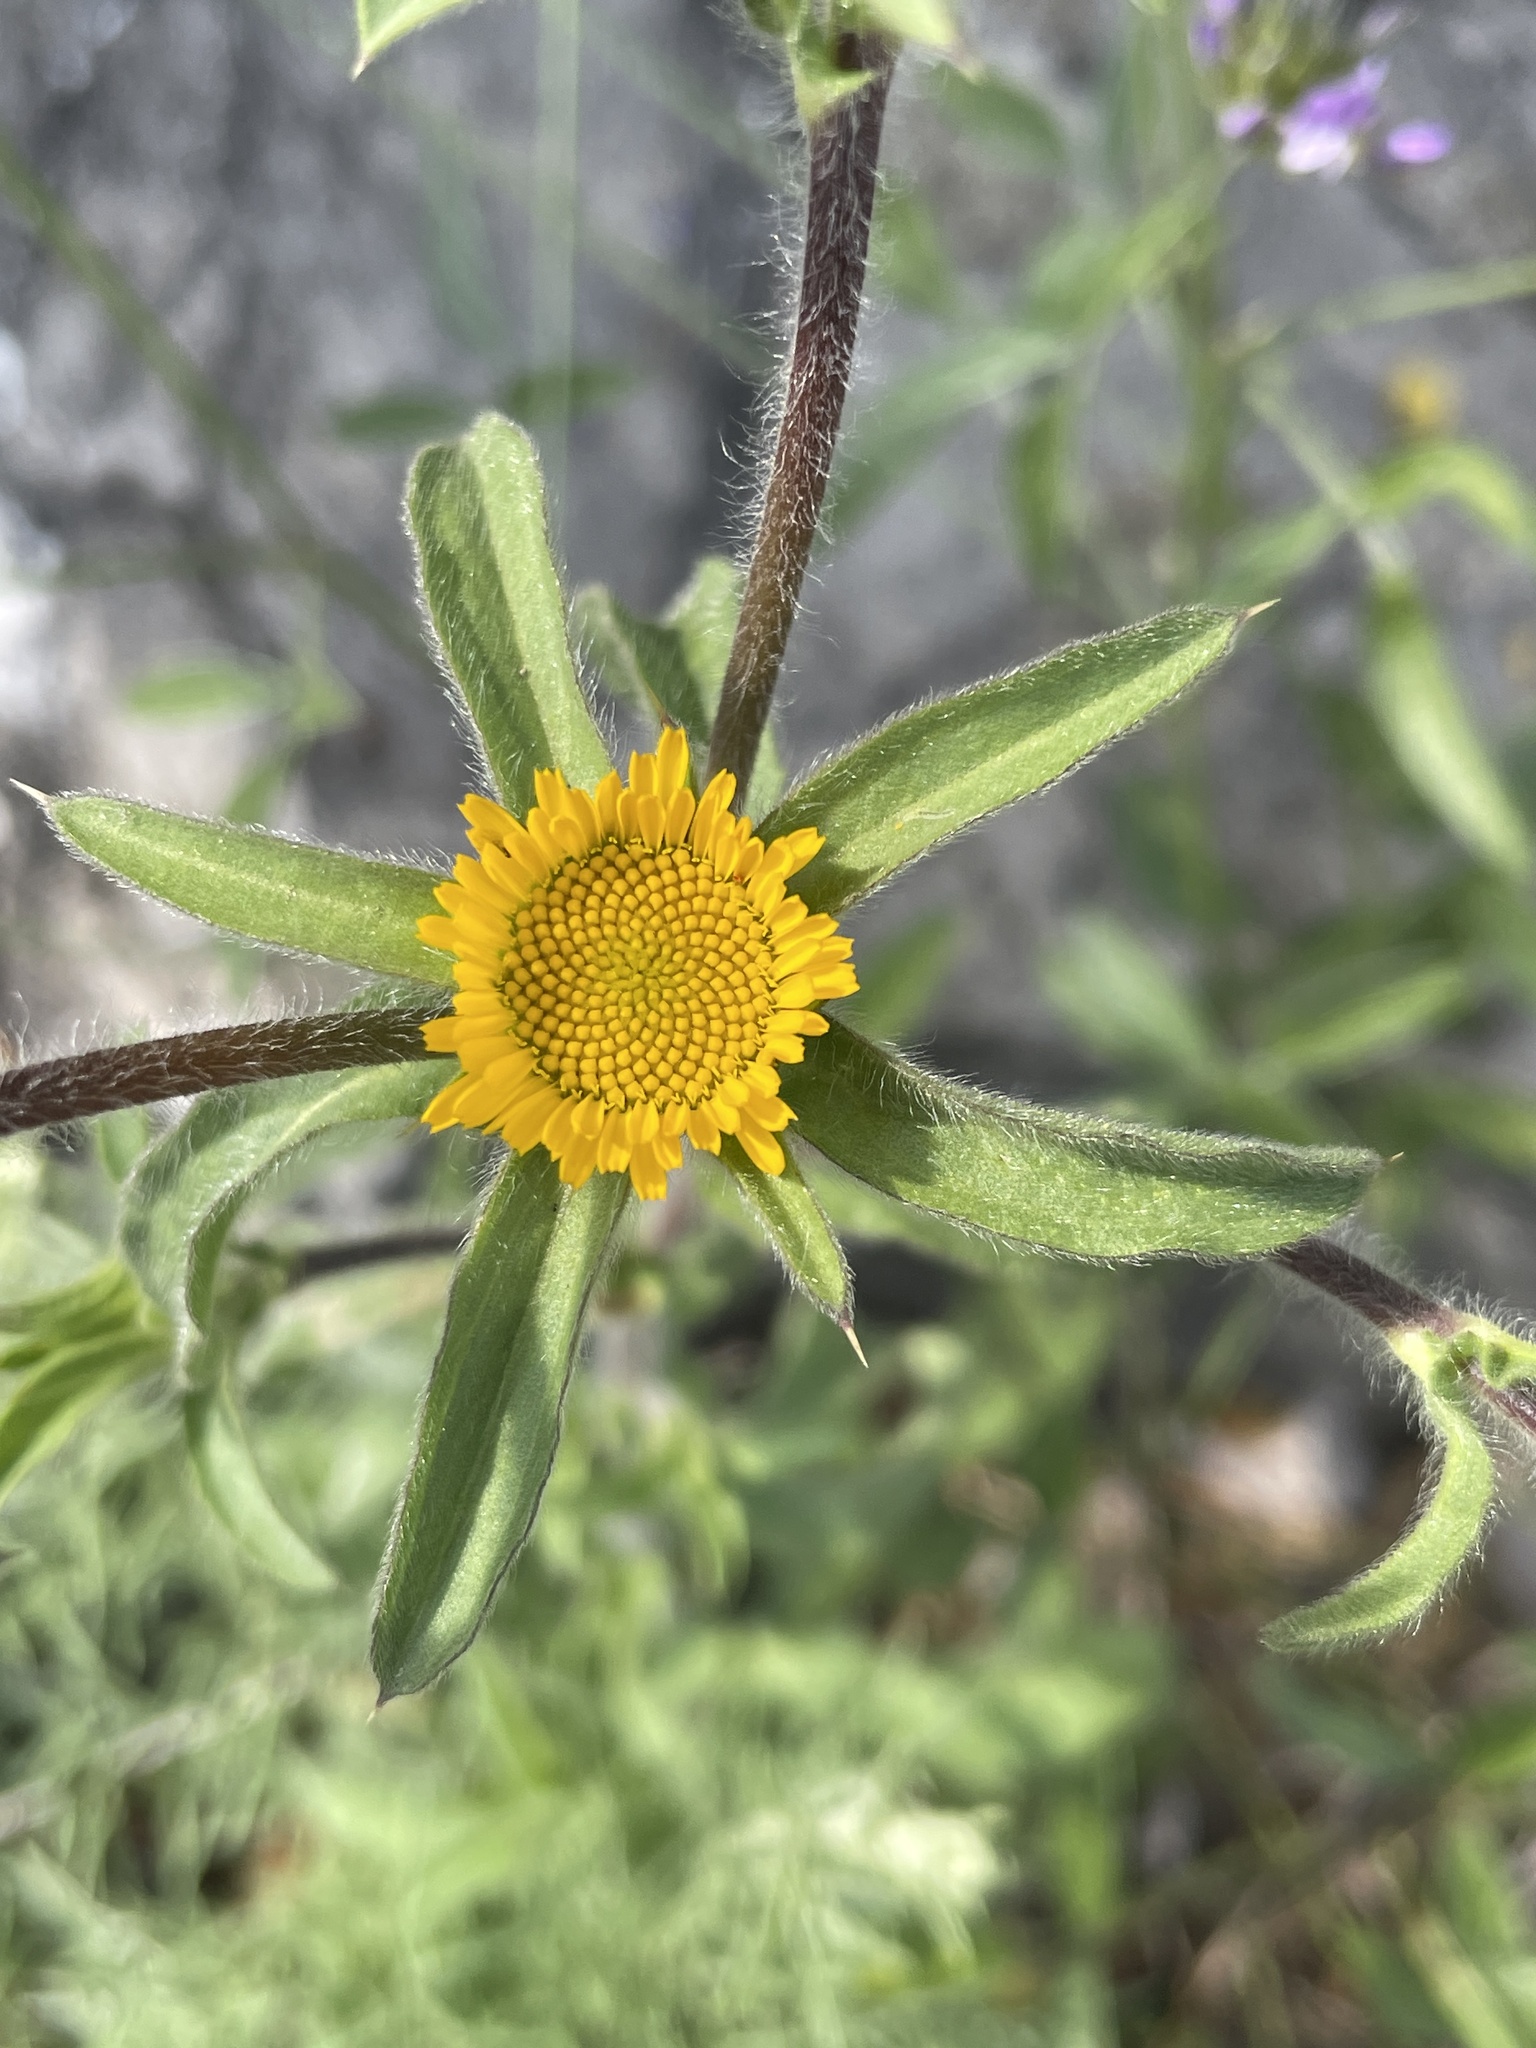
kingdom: Plantae
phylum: Tracheophyta
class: Magnoliopsida
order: Asterales
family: Asteraceae
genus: Pallenis
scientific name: Pallenis spinosa
